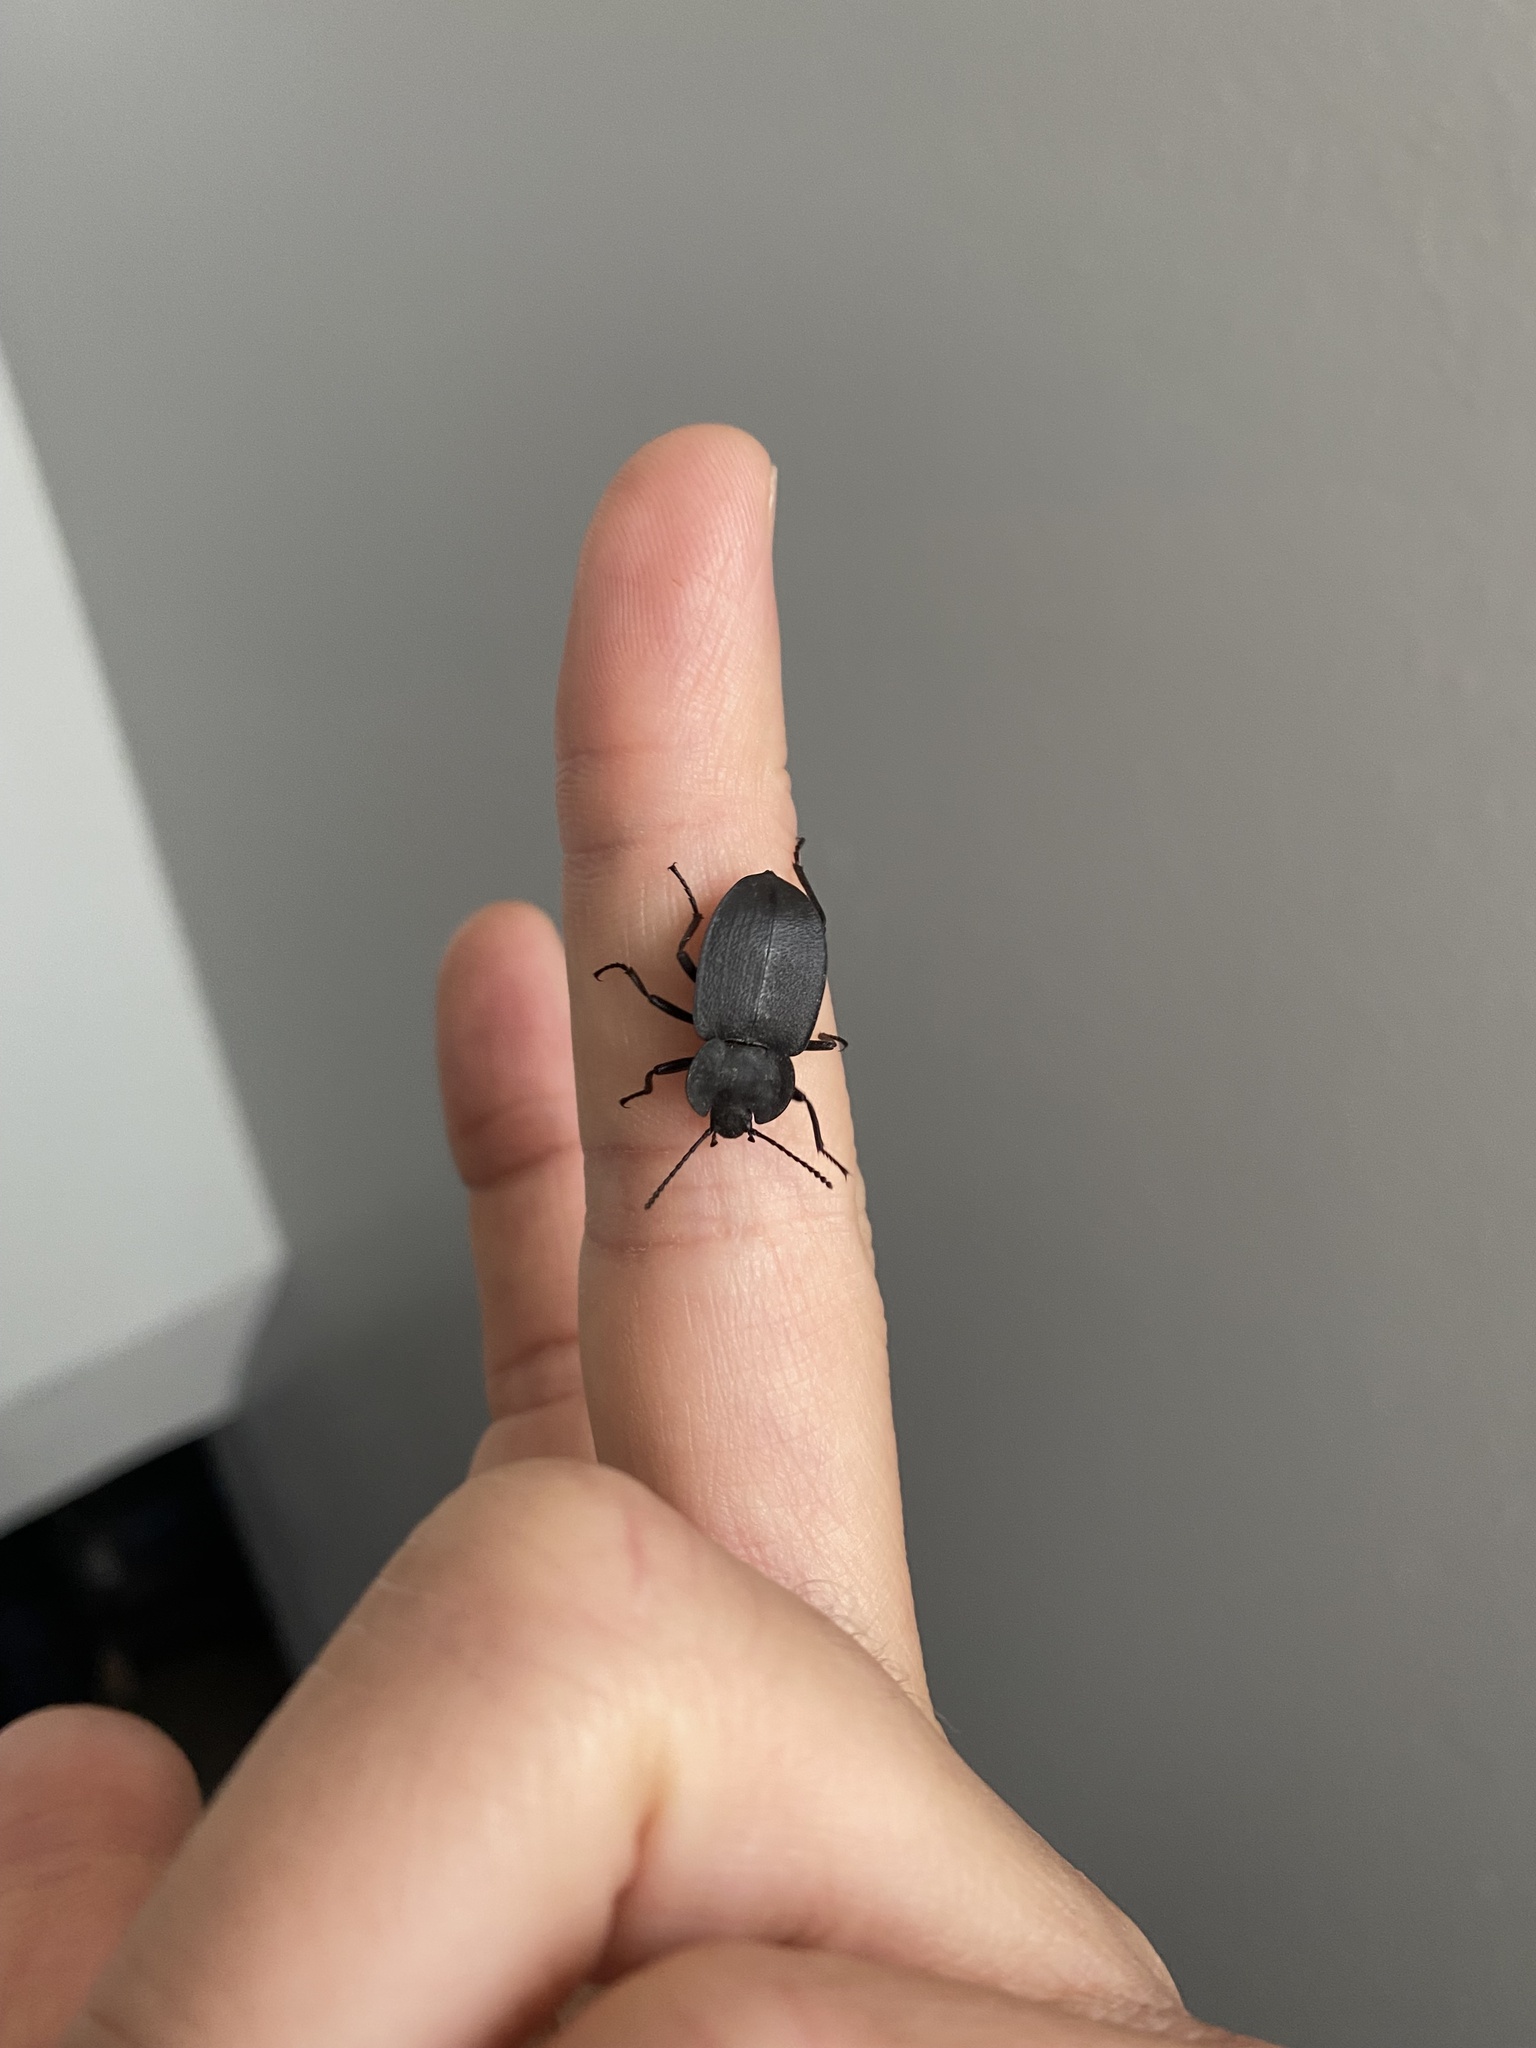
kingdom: Animalia
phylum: Arthropoda
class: Insecta
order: Coleoptera
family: Tenebrionidae
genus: Embaphion
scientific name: Embaphion contusum
